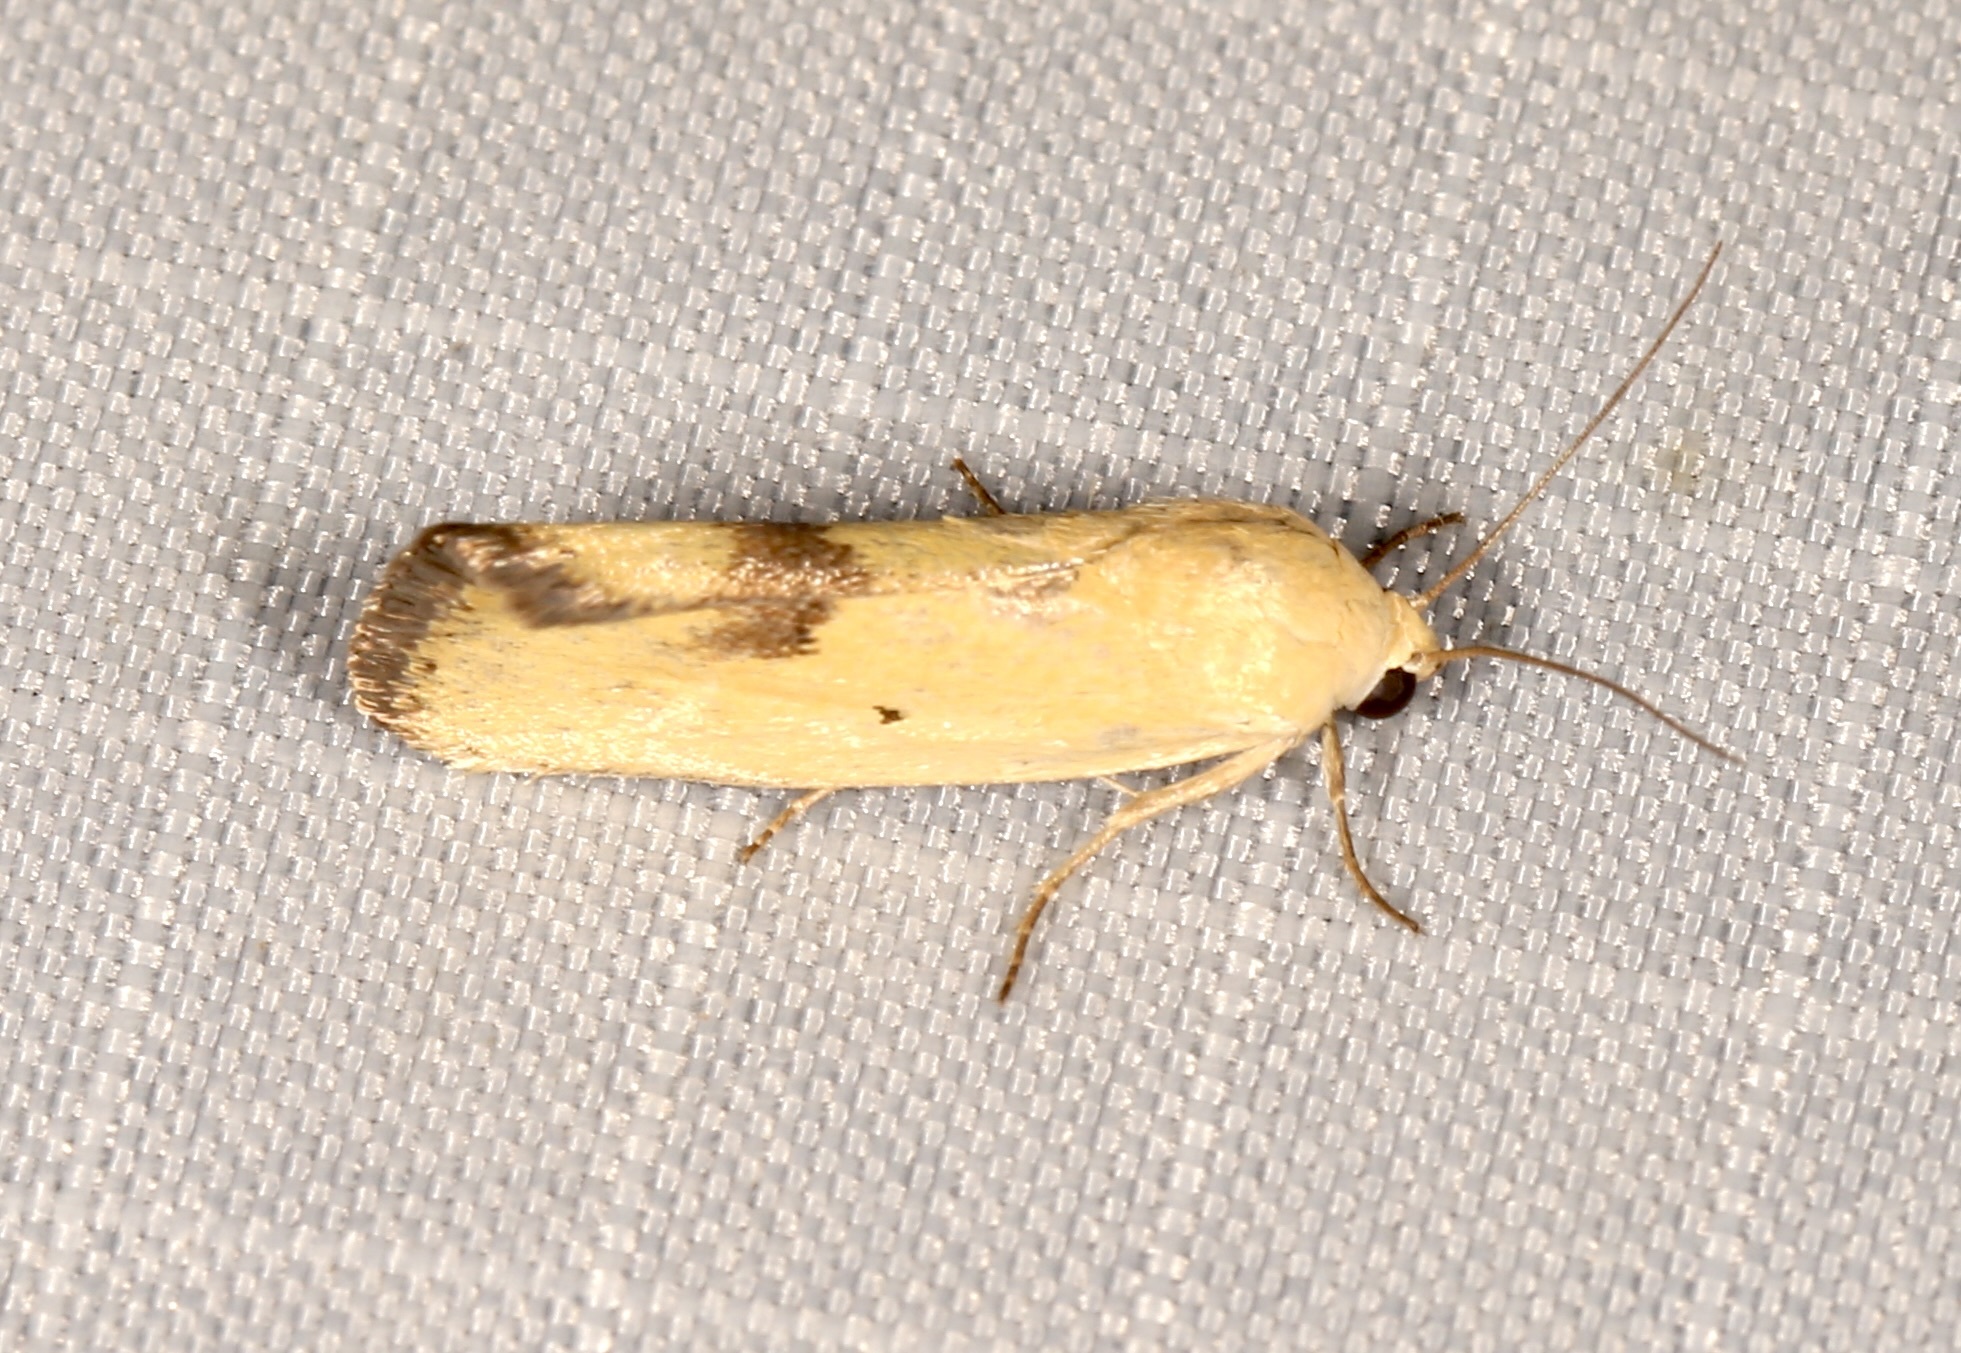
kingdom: Animalia
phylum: Arthropoda
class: Insecta
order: Lepidoptera
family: Noctuidae
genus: Acontia
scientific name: Acontia tortricina
